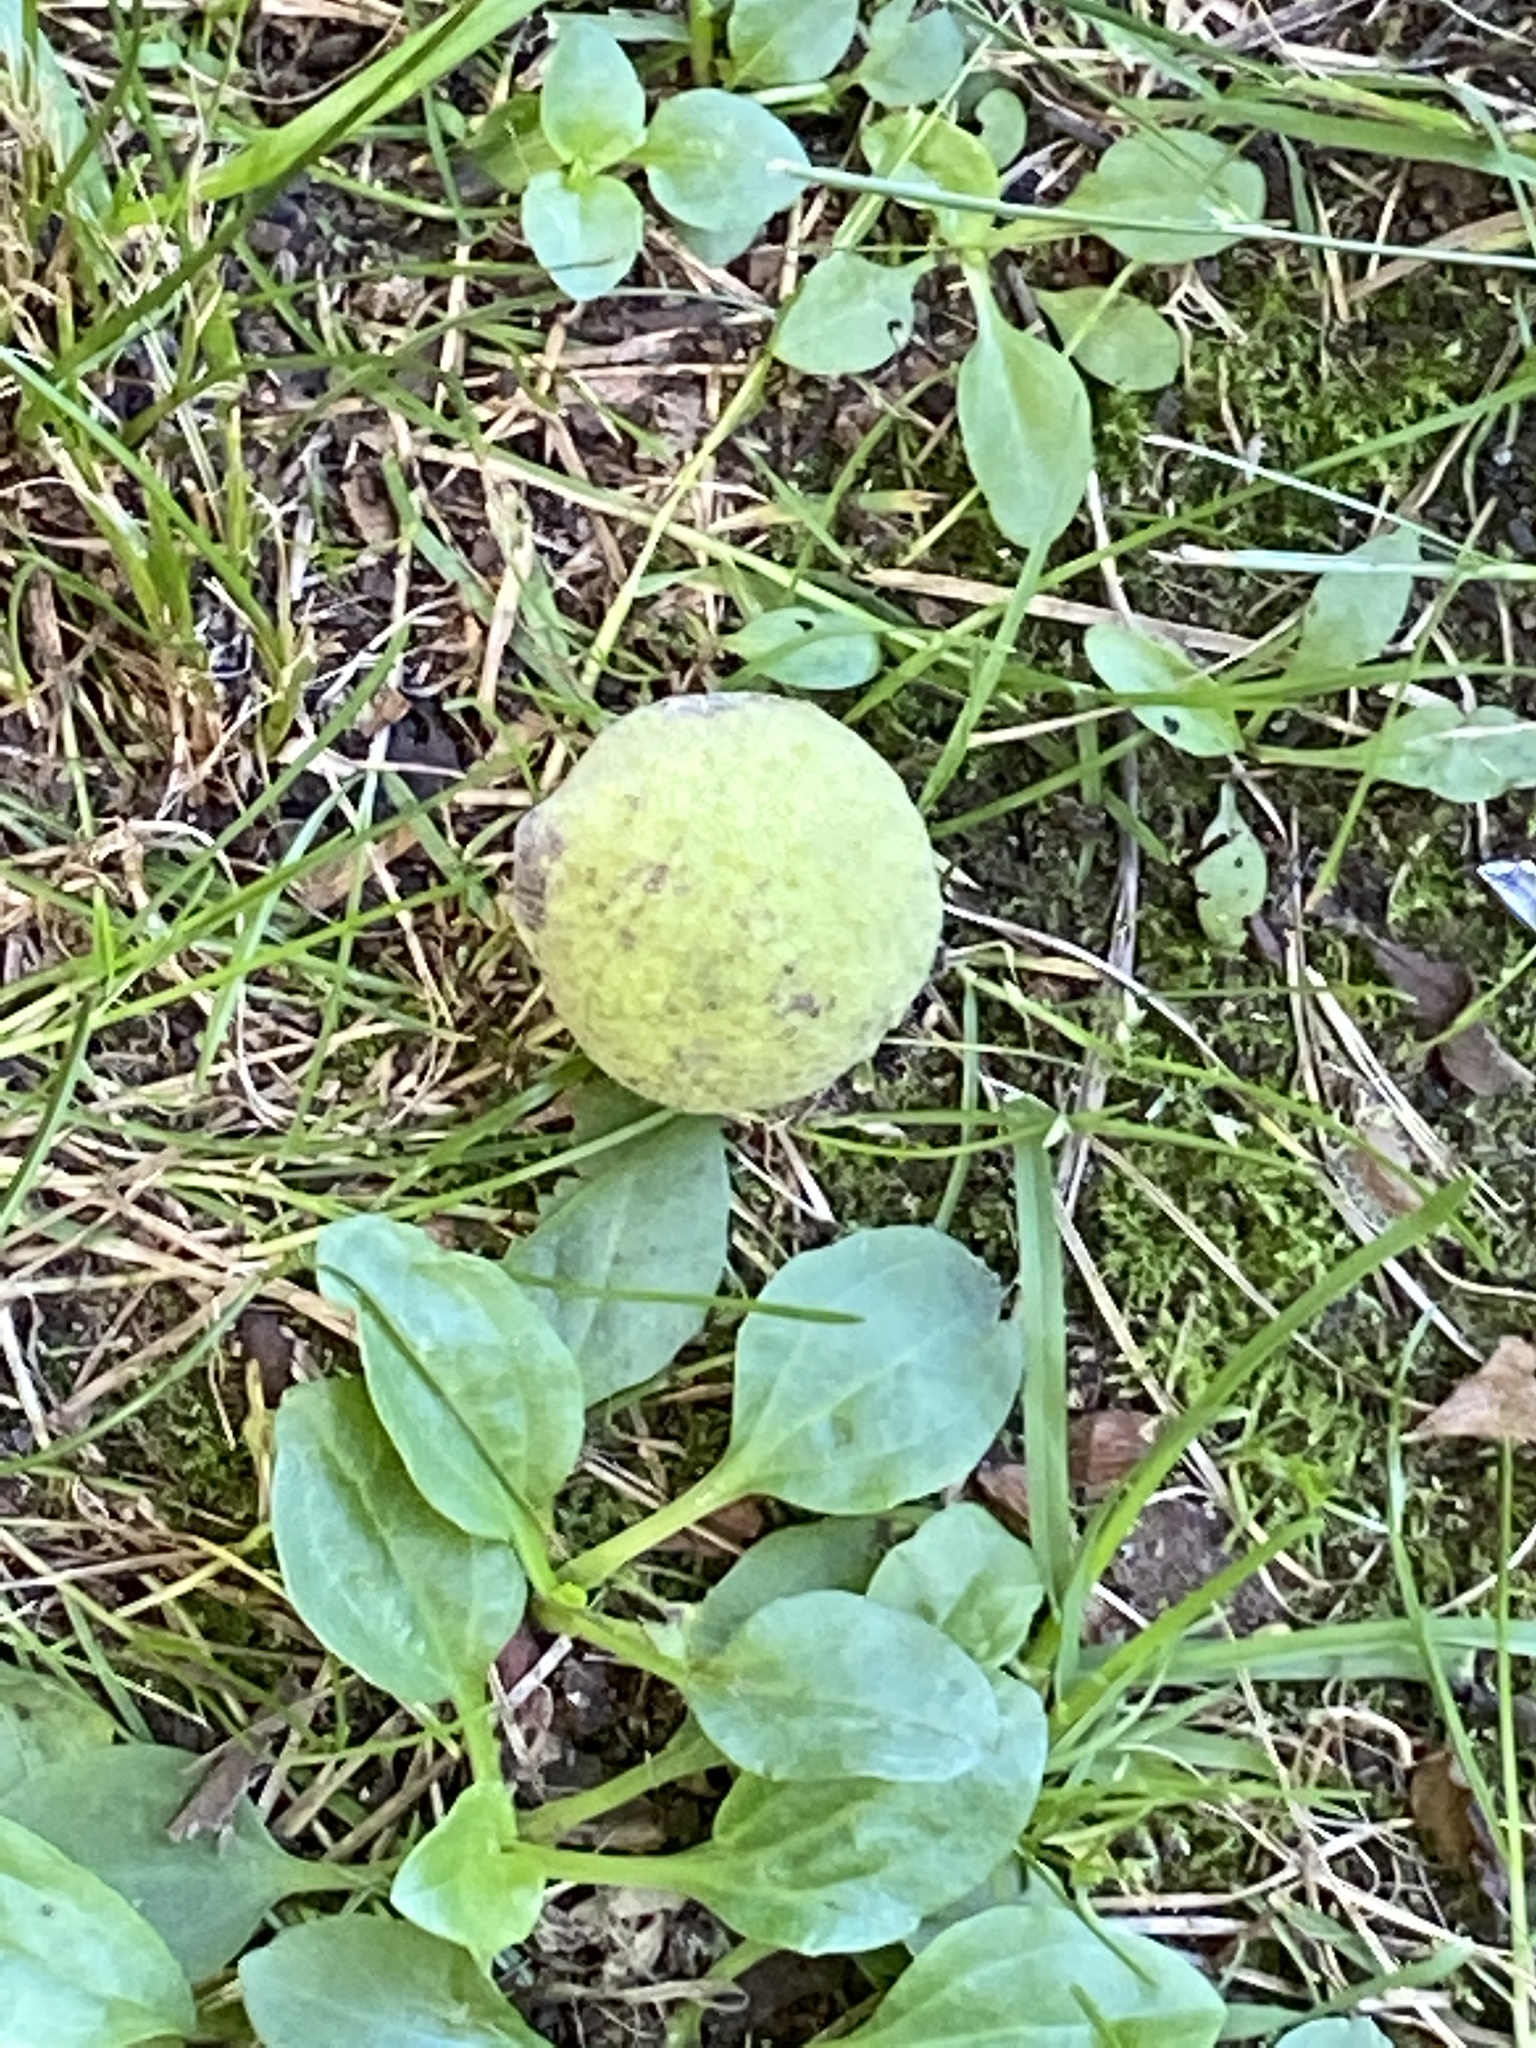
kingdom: Plantae
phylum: Tracheophyta
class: Magnoliopsida
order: Fagales
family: Juglandaceae
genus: Juglans
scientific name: Juglans nigra
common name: Black walnut
